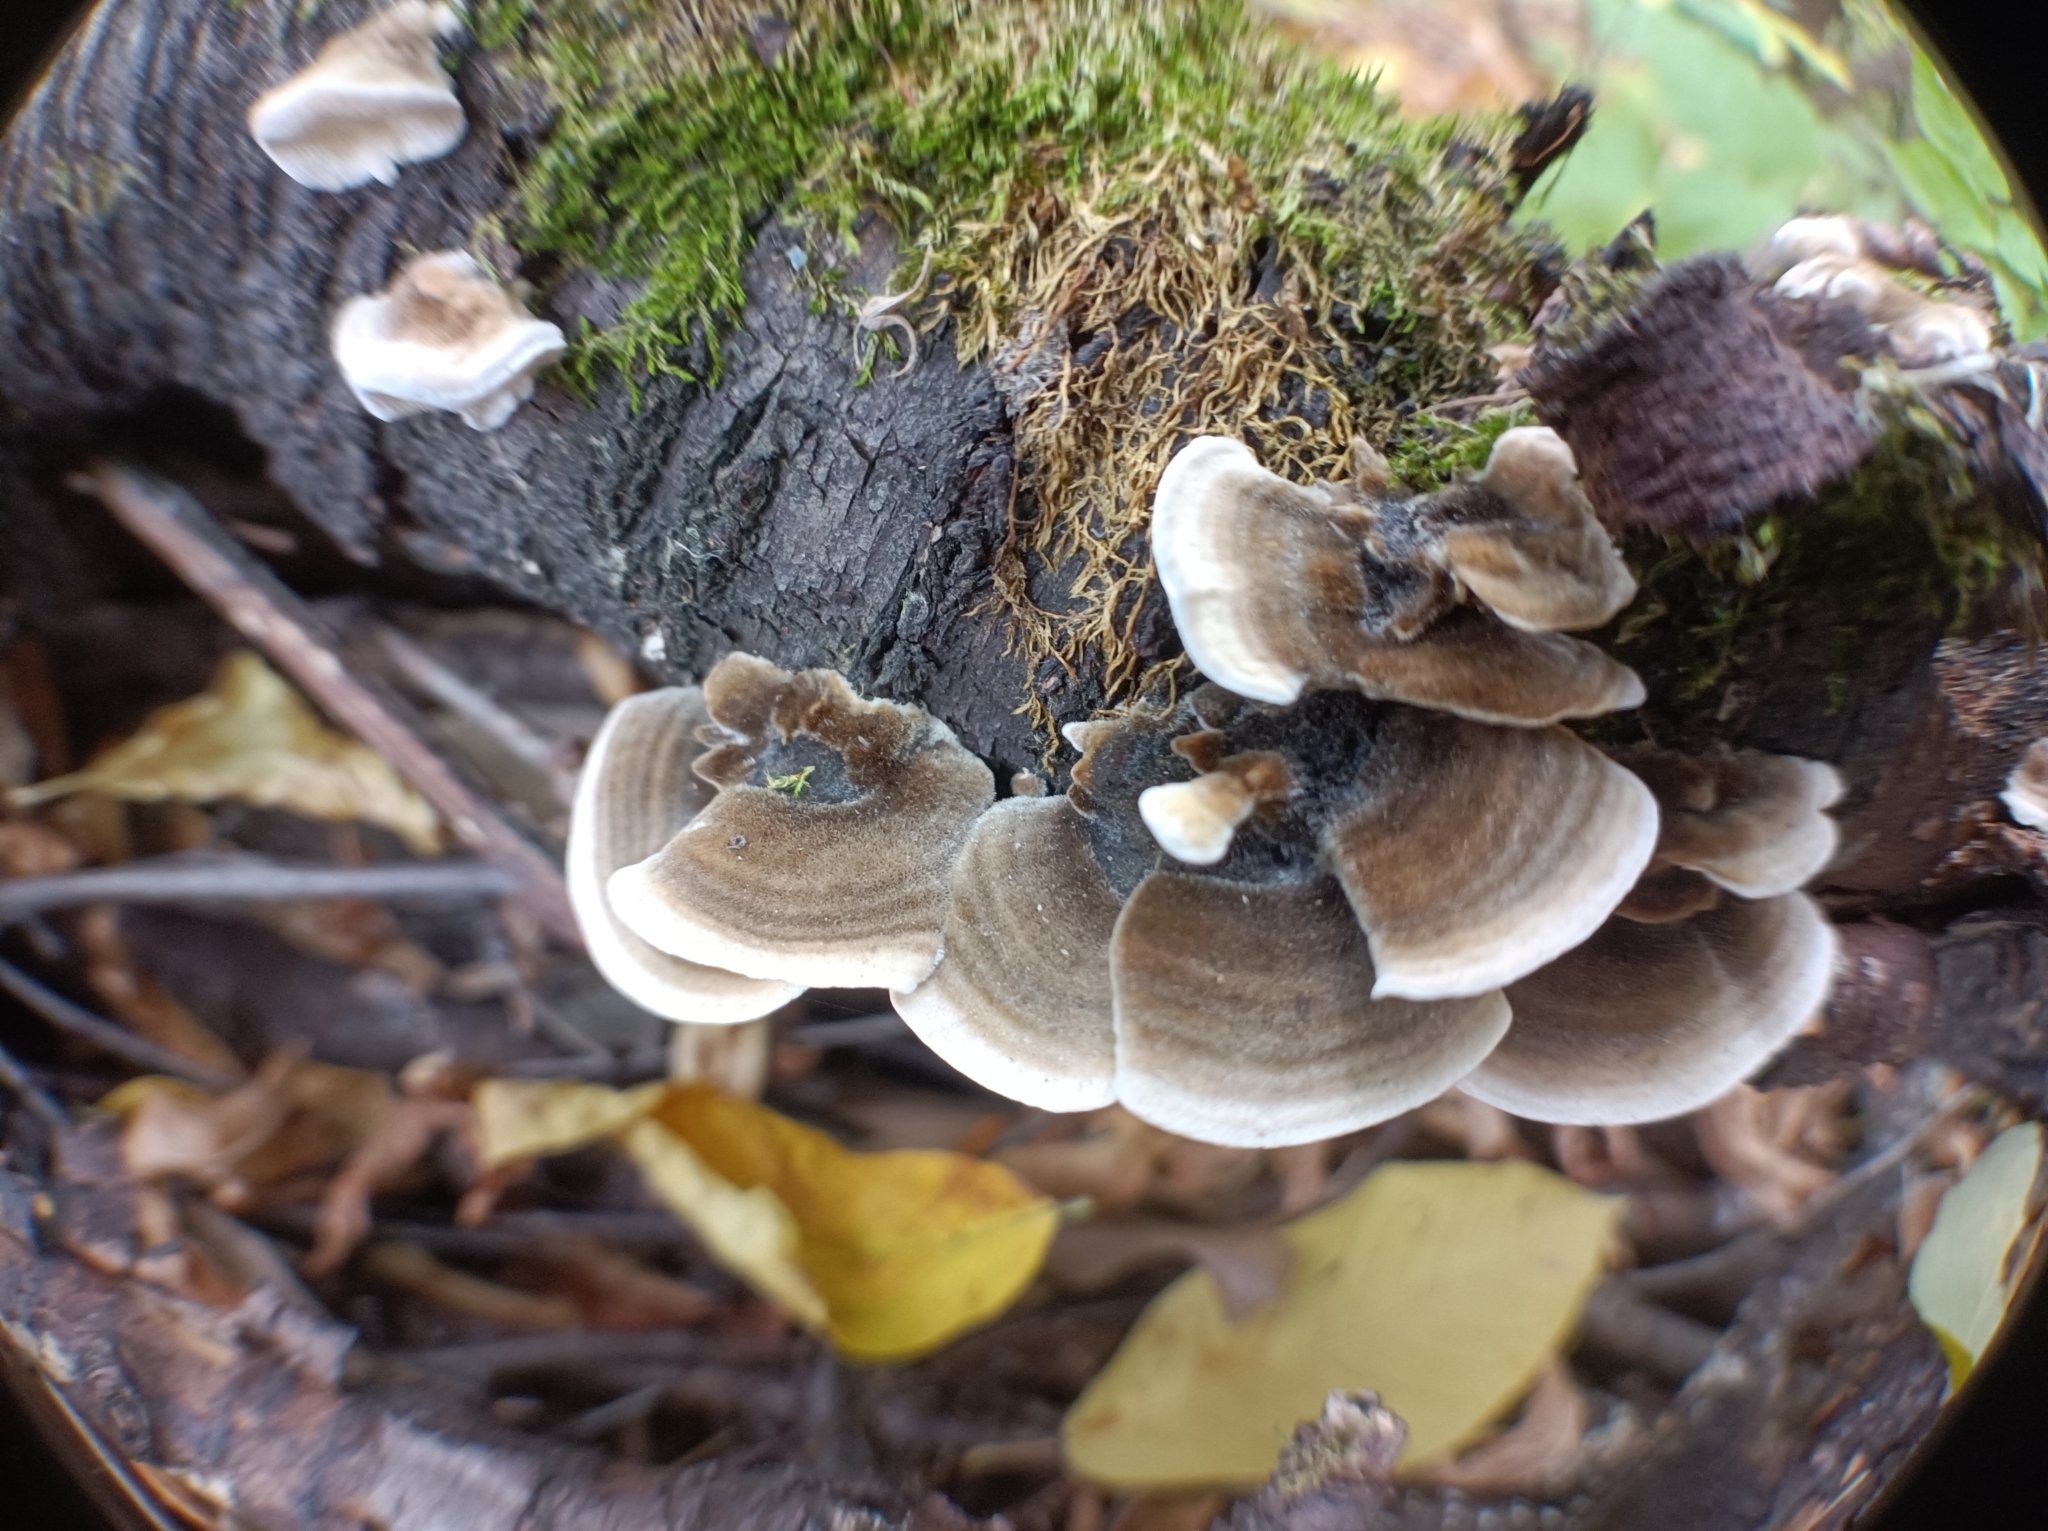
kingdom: Fungi
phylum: Basidiomycota
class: Agaricomycetes
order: Polyporales
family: Polyporaceae
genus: Trametes
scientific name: Trametes versicolor
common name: Turkeytail
